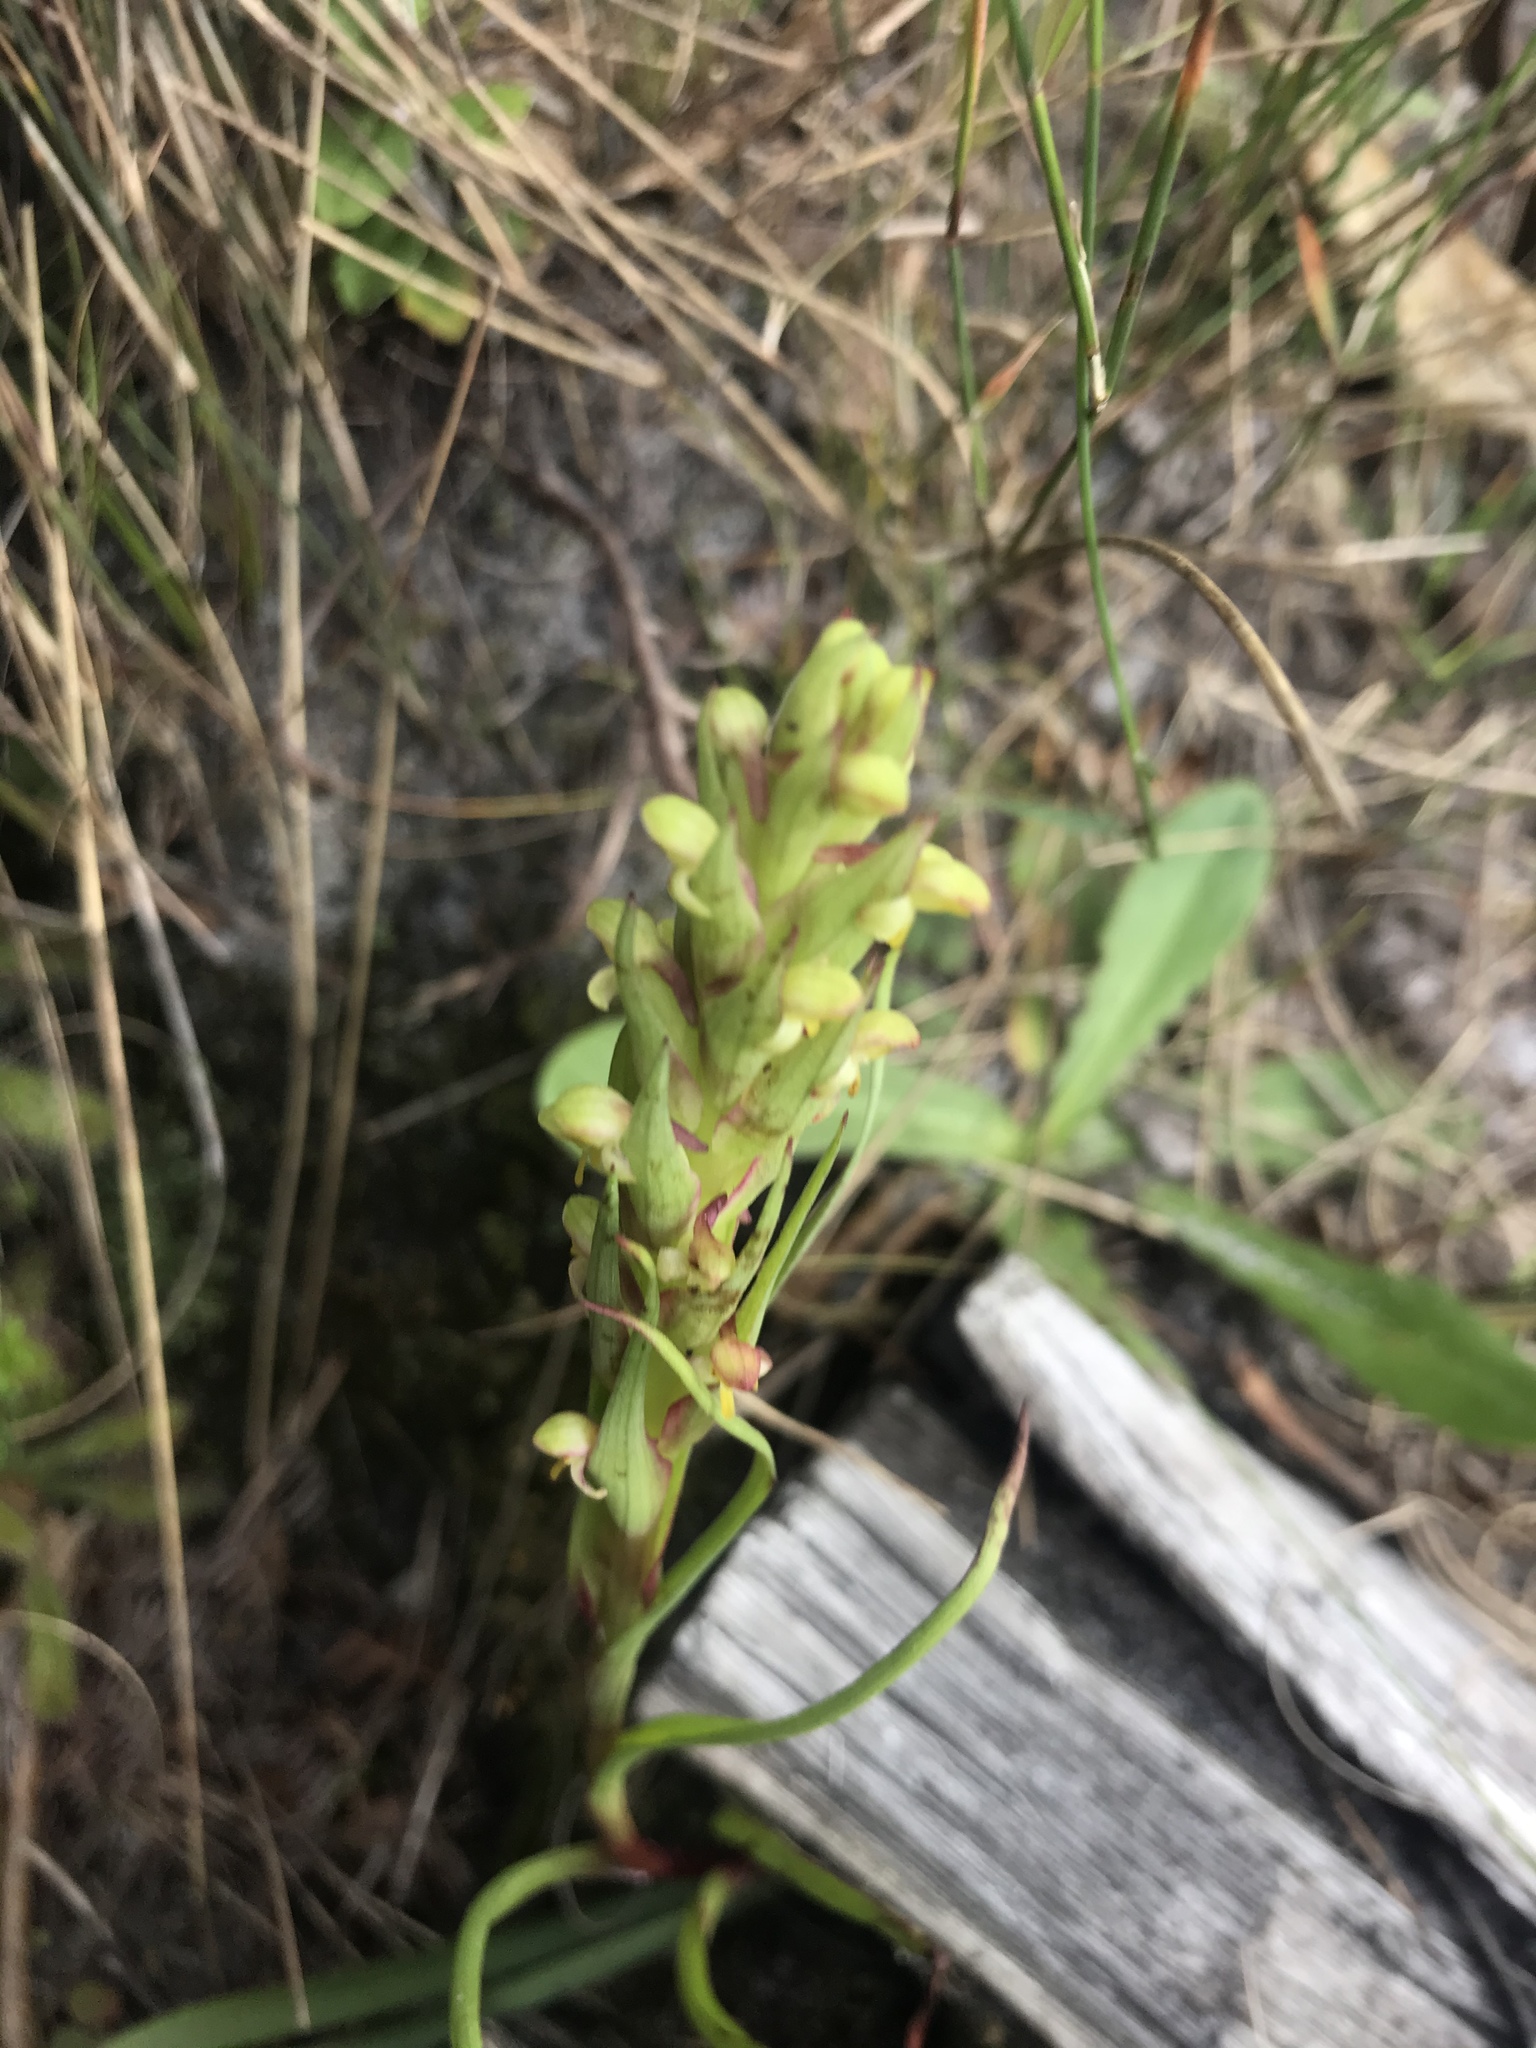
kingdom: Plantae
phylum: Tracheophyta
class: Liliopsida
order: Asparagales
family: Orchidaceae
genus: Disa
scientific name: Disa bracteata
